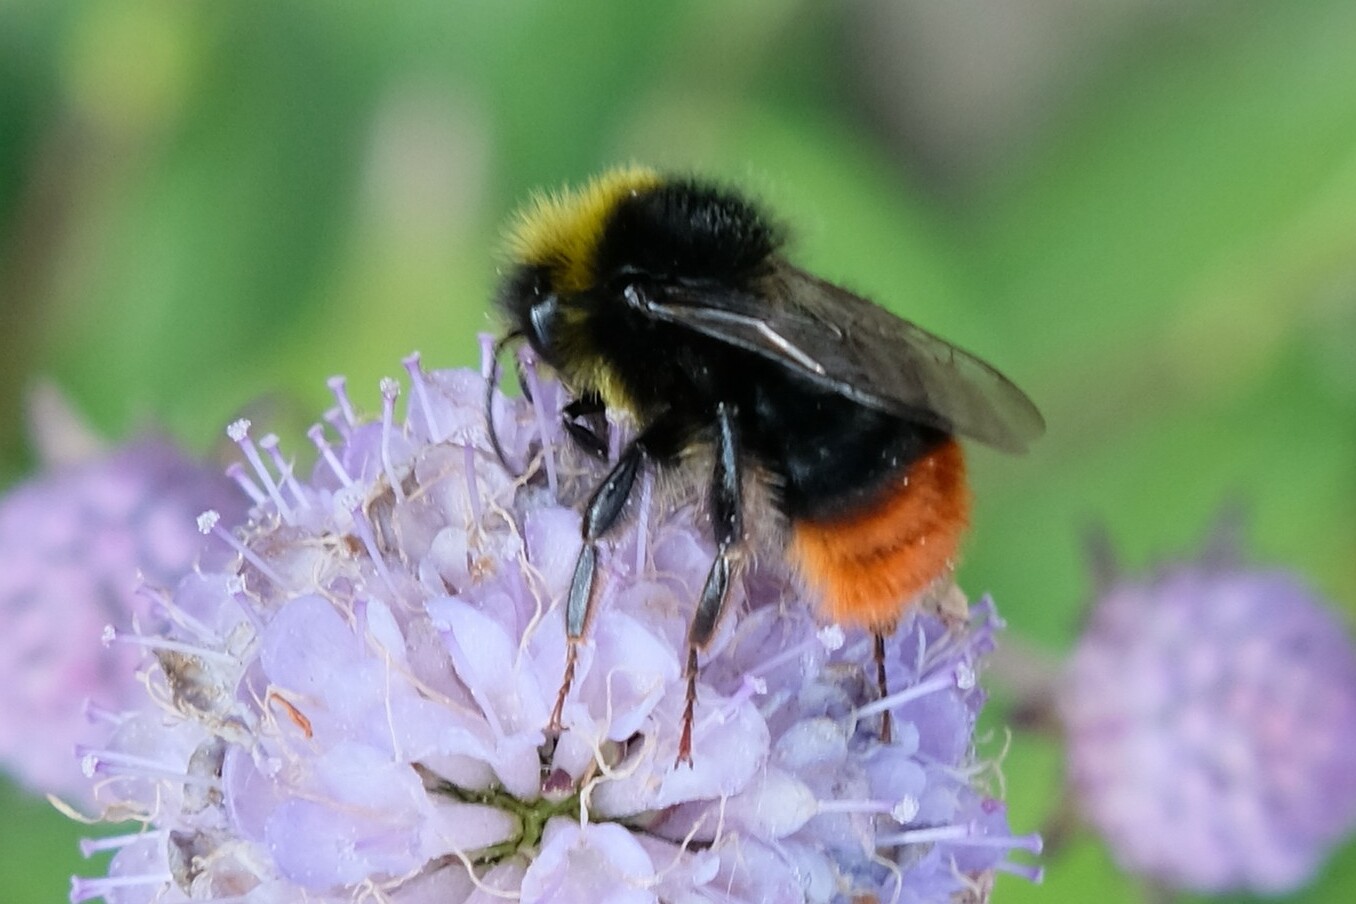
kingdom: Animalia
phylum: Arthropoda
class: Insecta
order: Hymenoptera
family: Apidae
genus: Bombus
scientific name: Bombus lapidarius
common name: Large red-tailed humble-bee
